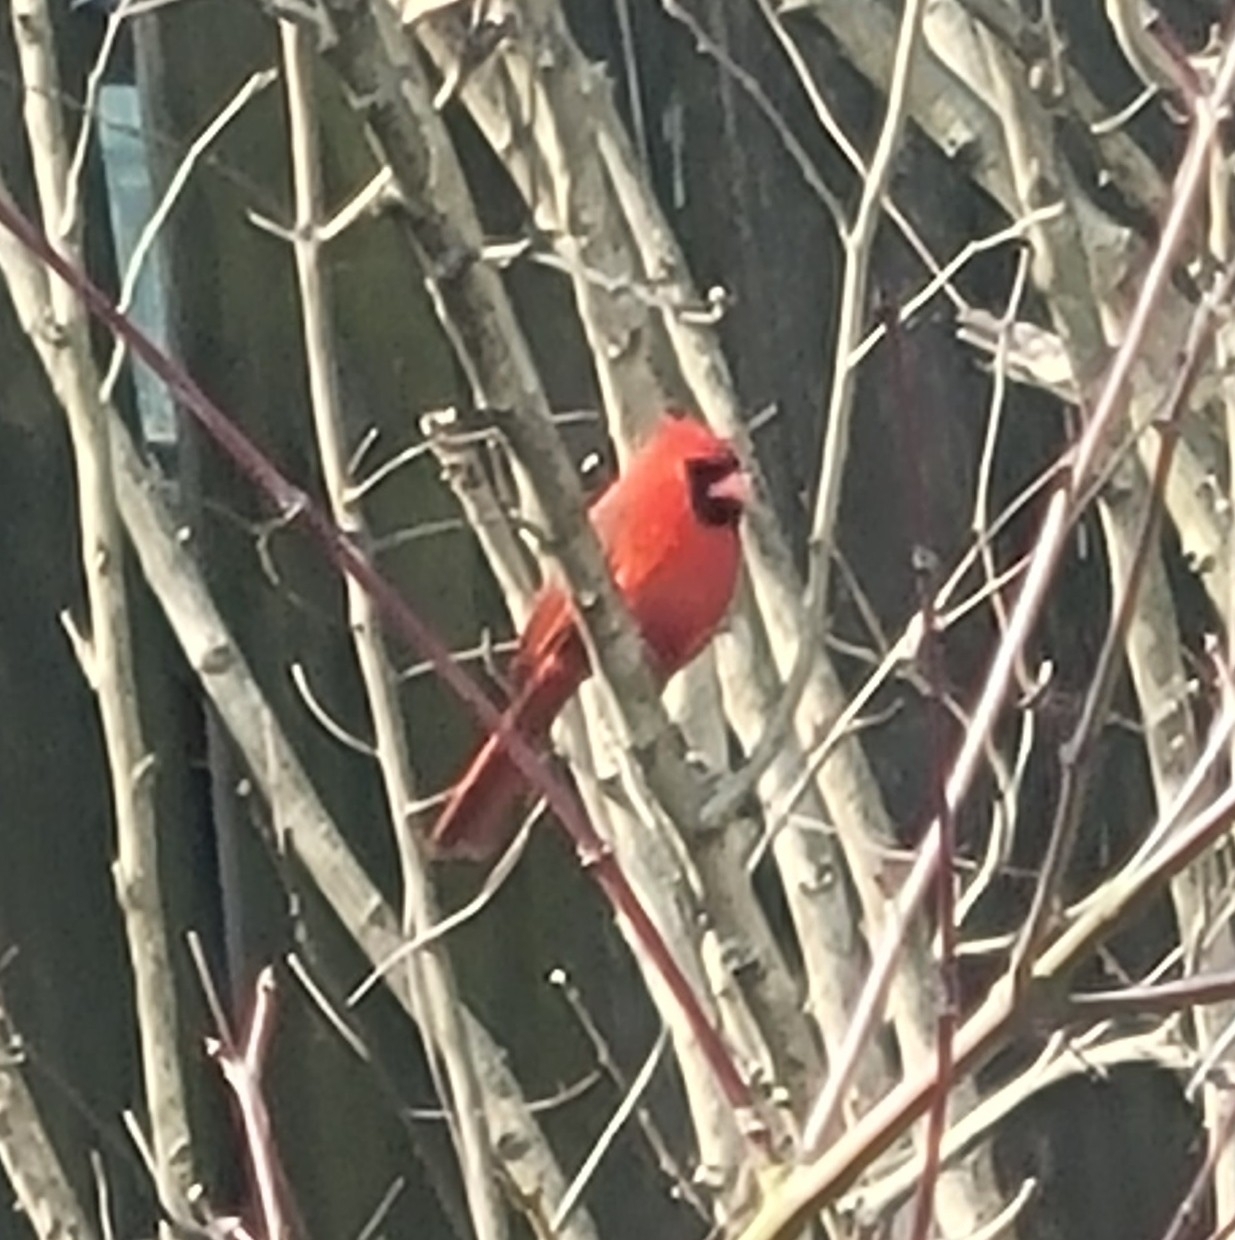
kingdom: Animalia
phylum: Chordata
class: Aves
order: Passeriformes
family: Cardinalidae
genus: Cardinalis
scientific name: Cardinalis cardinalis
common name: Northern cardinal
